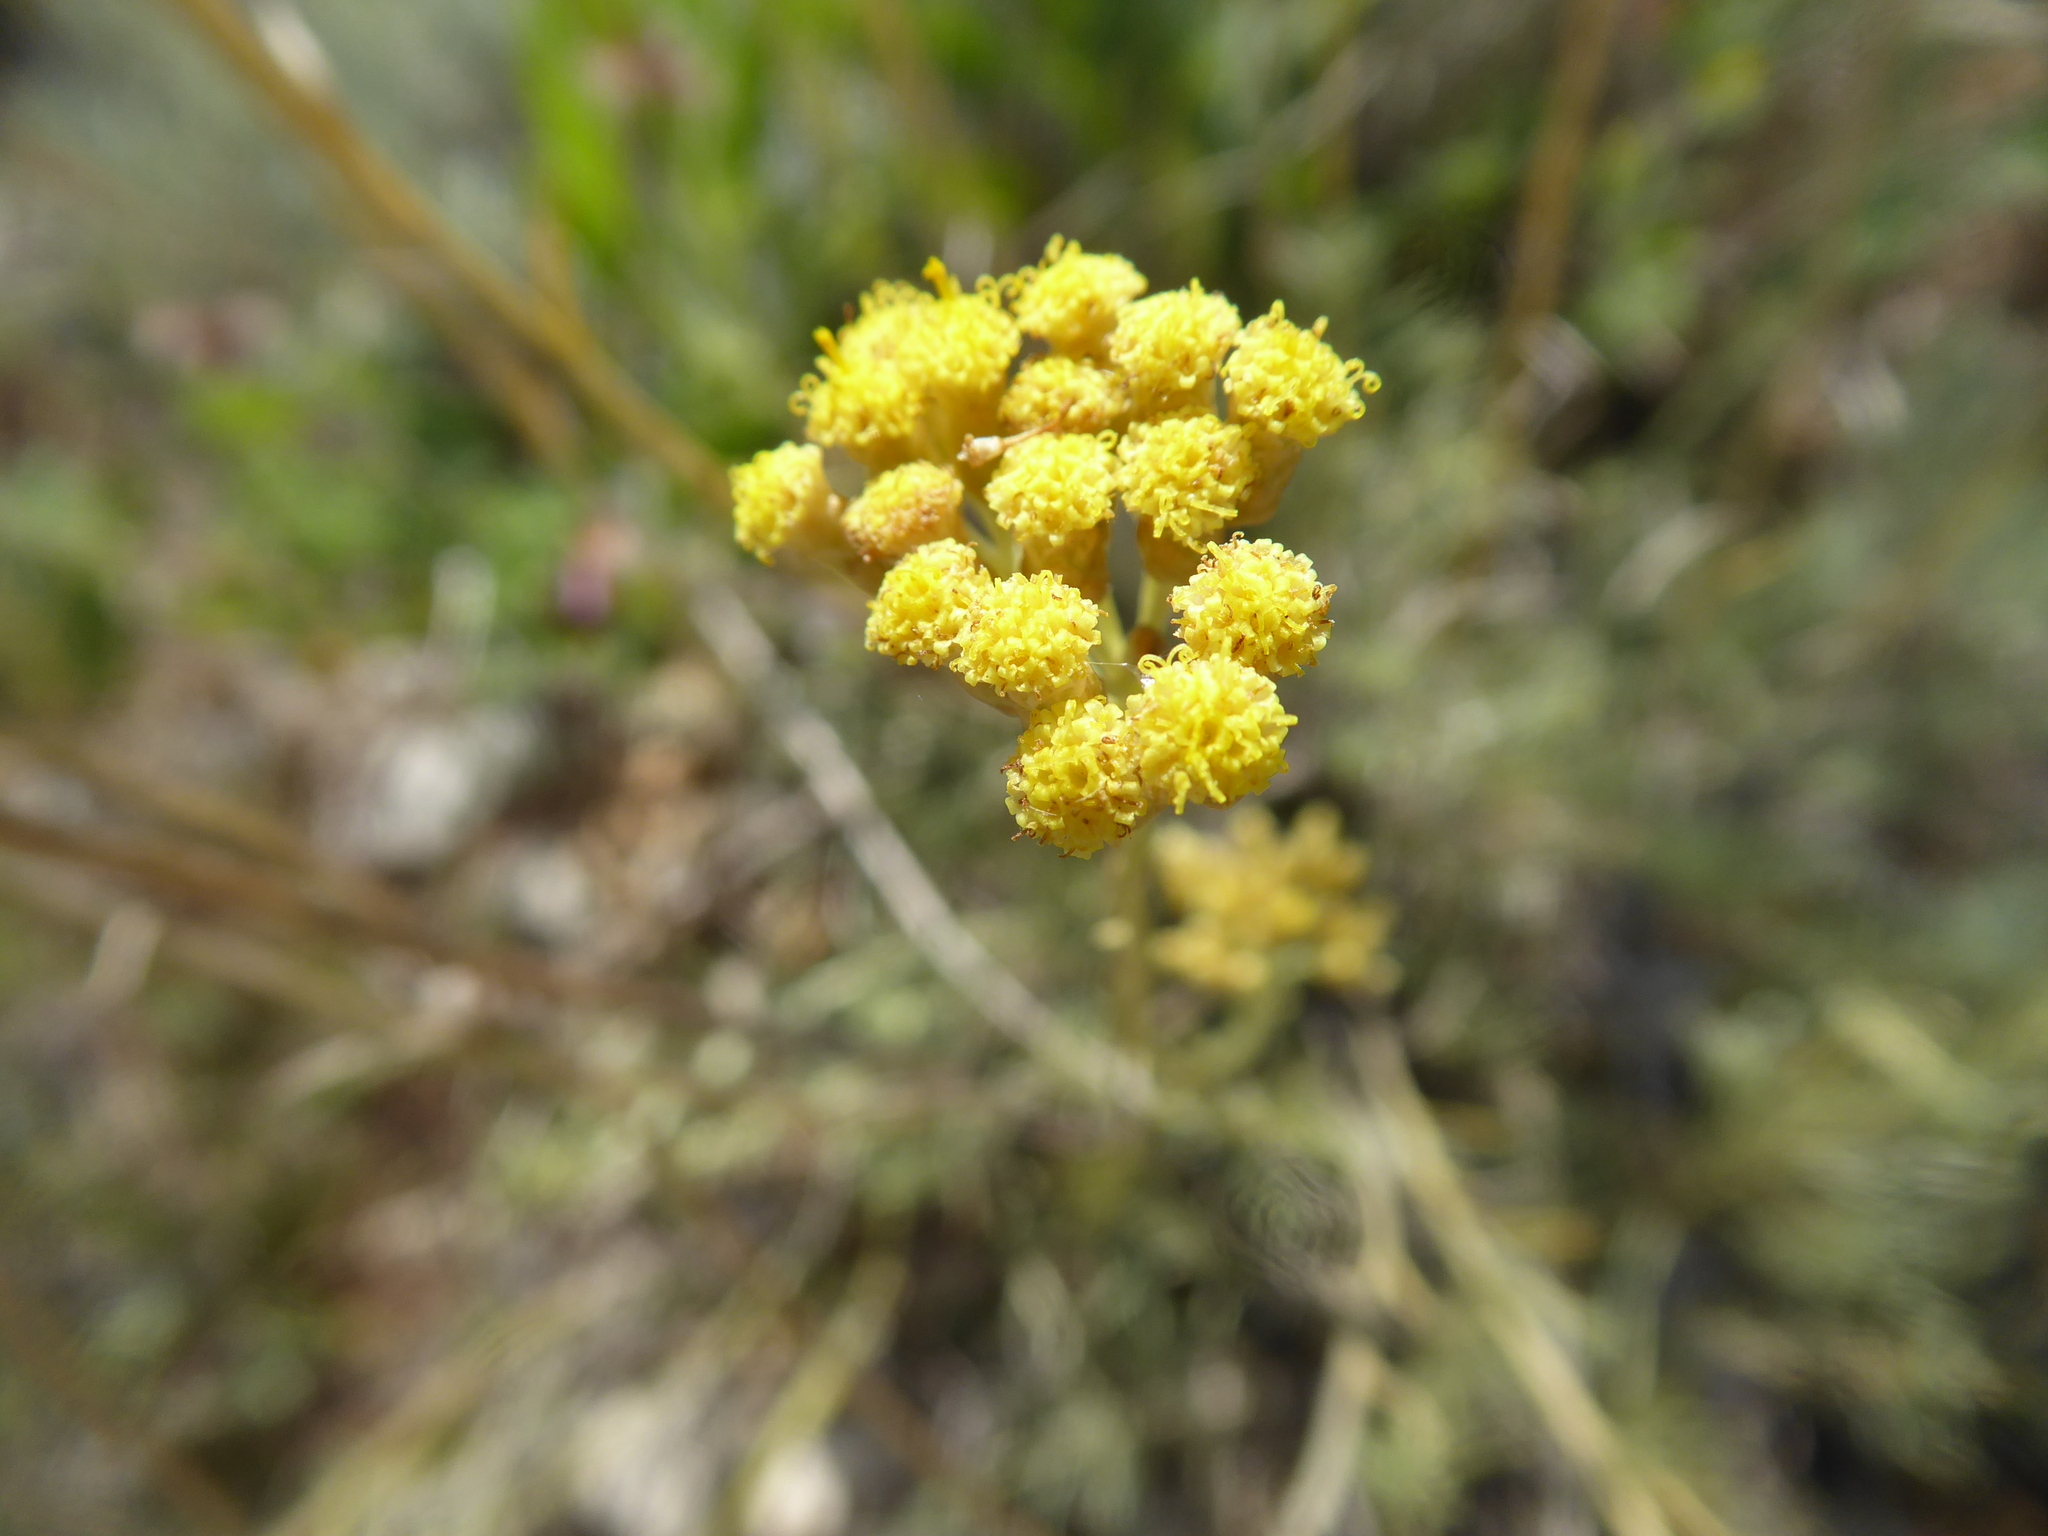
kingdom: Plantae
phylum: Tracheophyta
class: Magnoliopsida
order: Asterales
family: Asteraceae
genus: Helichrysum
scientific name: Helichrysum italicum
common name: Curryplant
